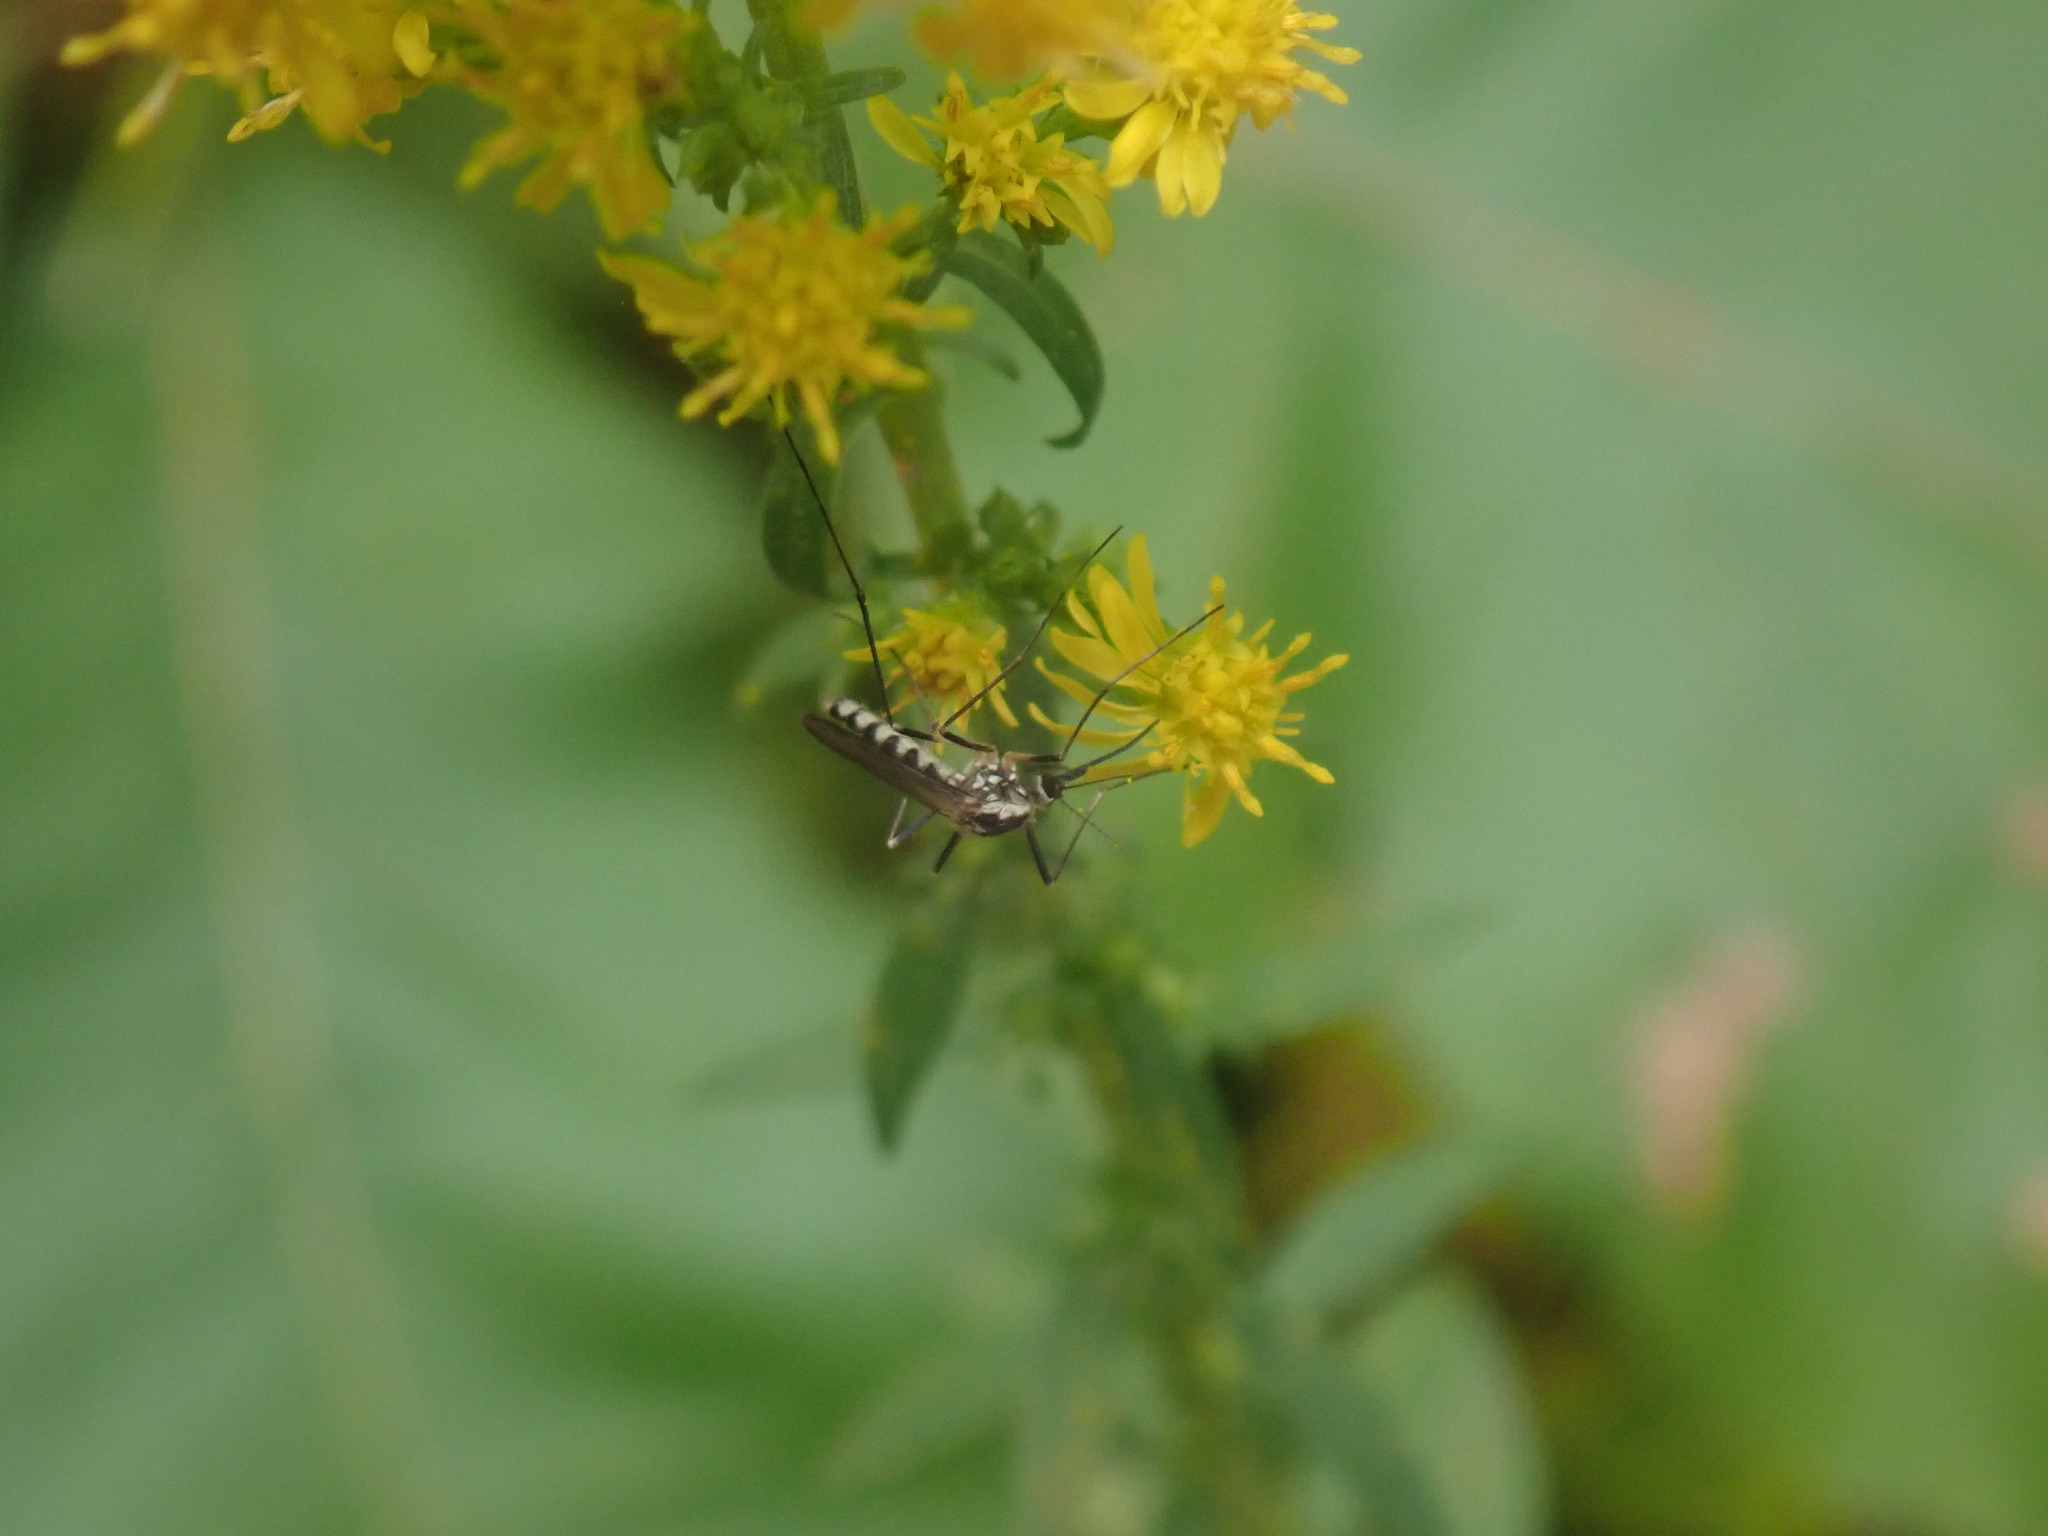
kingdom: Animalia
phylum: Arthropoda
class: Insecta
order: Diptera
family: Culicidae
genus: Aedes
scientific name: Aedes triseriatus
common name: Eastern treehole mosquito
